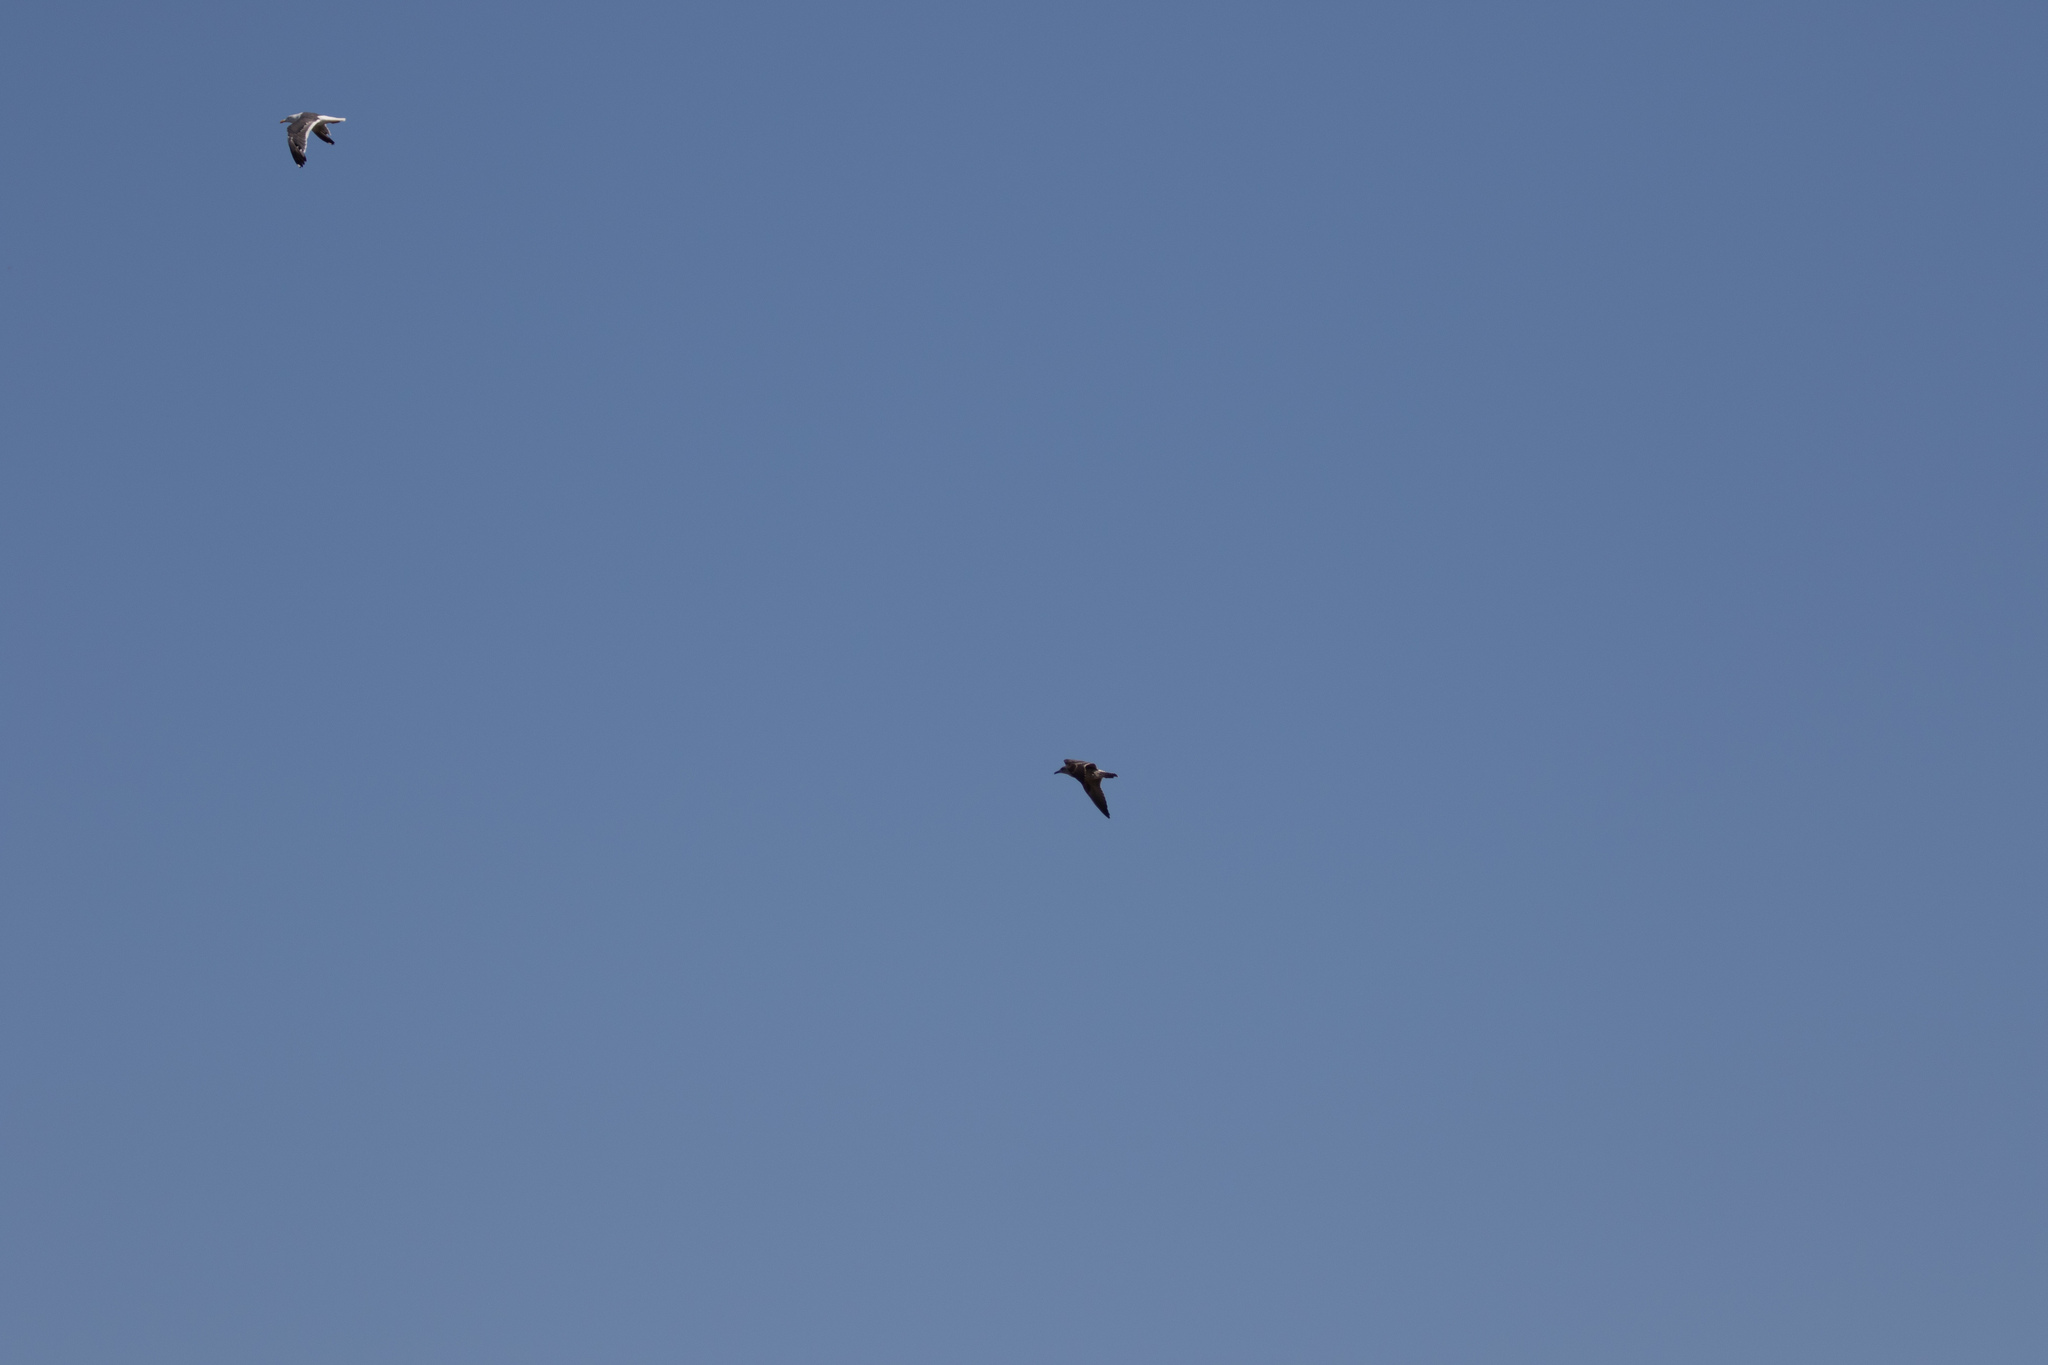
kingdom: Animalia
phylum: Chordata
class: Aves
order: Charadriiformes
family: Laridae
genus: Larus
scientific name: Larus
